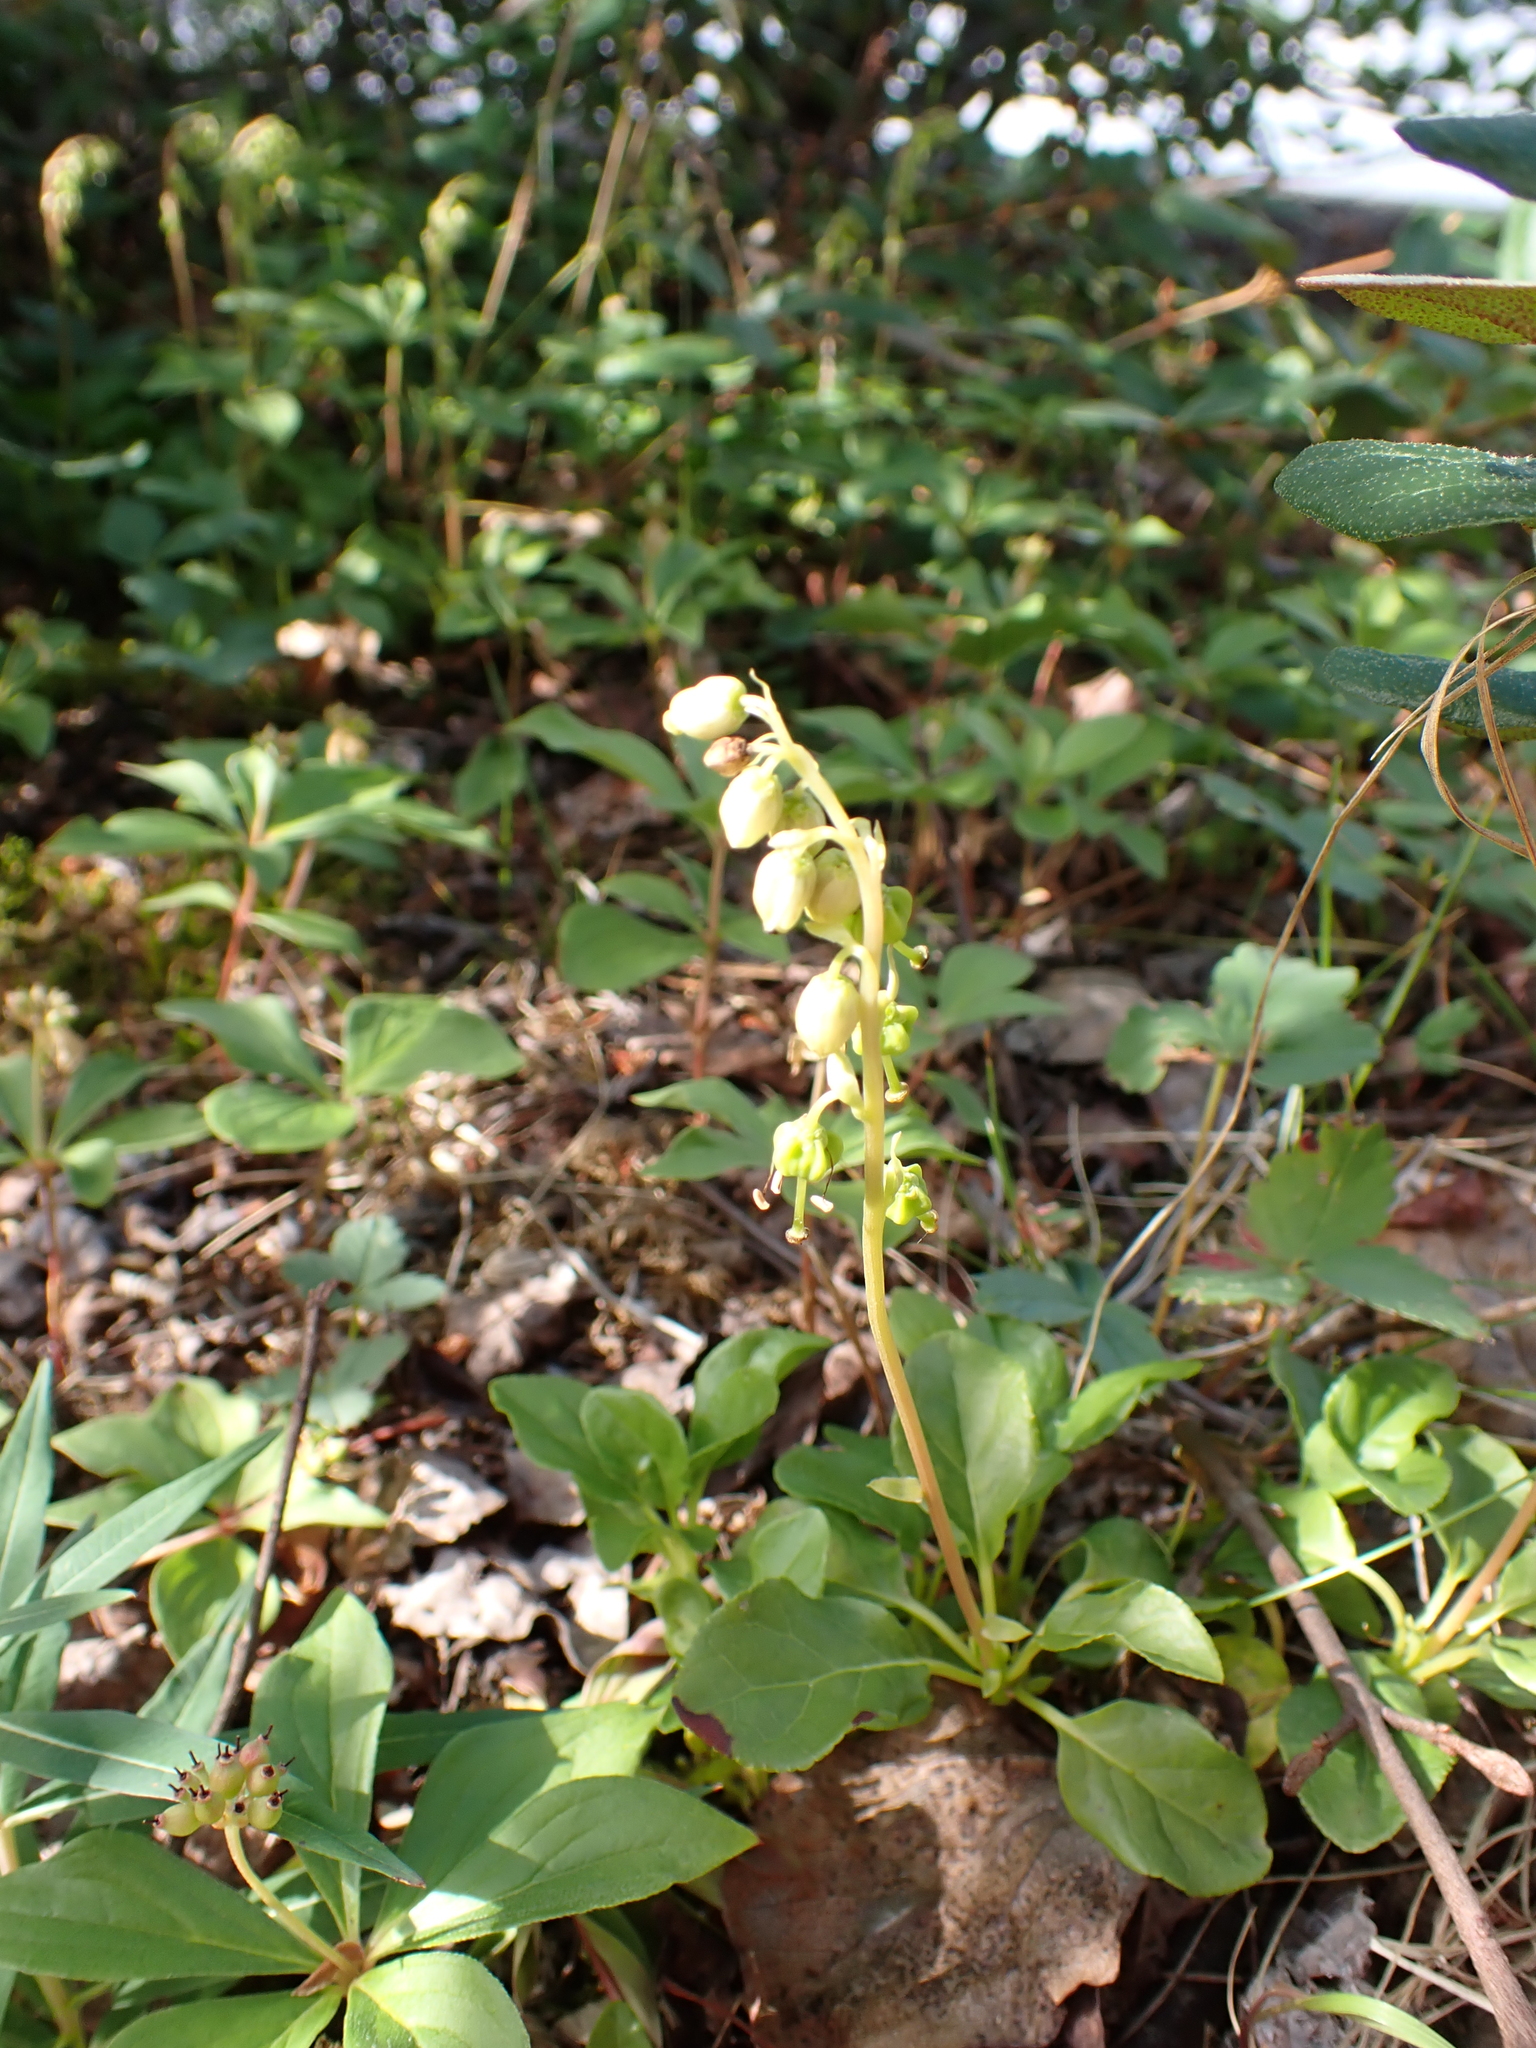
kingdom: Plantae
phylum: Tracheophyta
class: Magnoliopsida
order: Ericales
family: Ericaceae
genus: Orthilia
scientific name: Orthilia secunda
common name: One-sided orthilia
